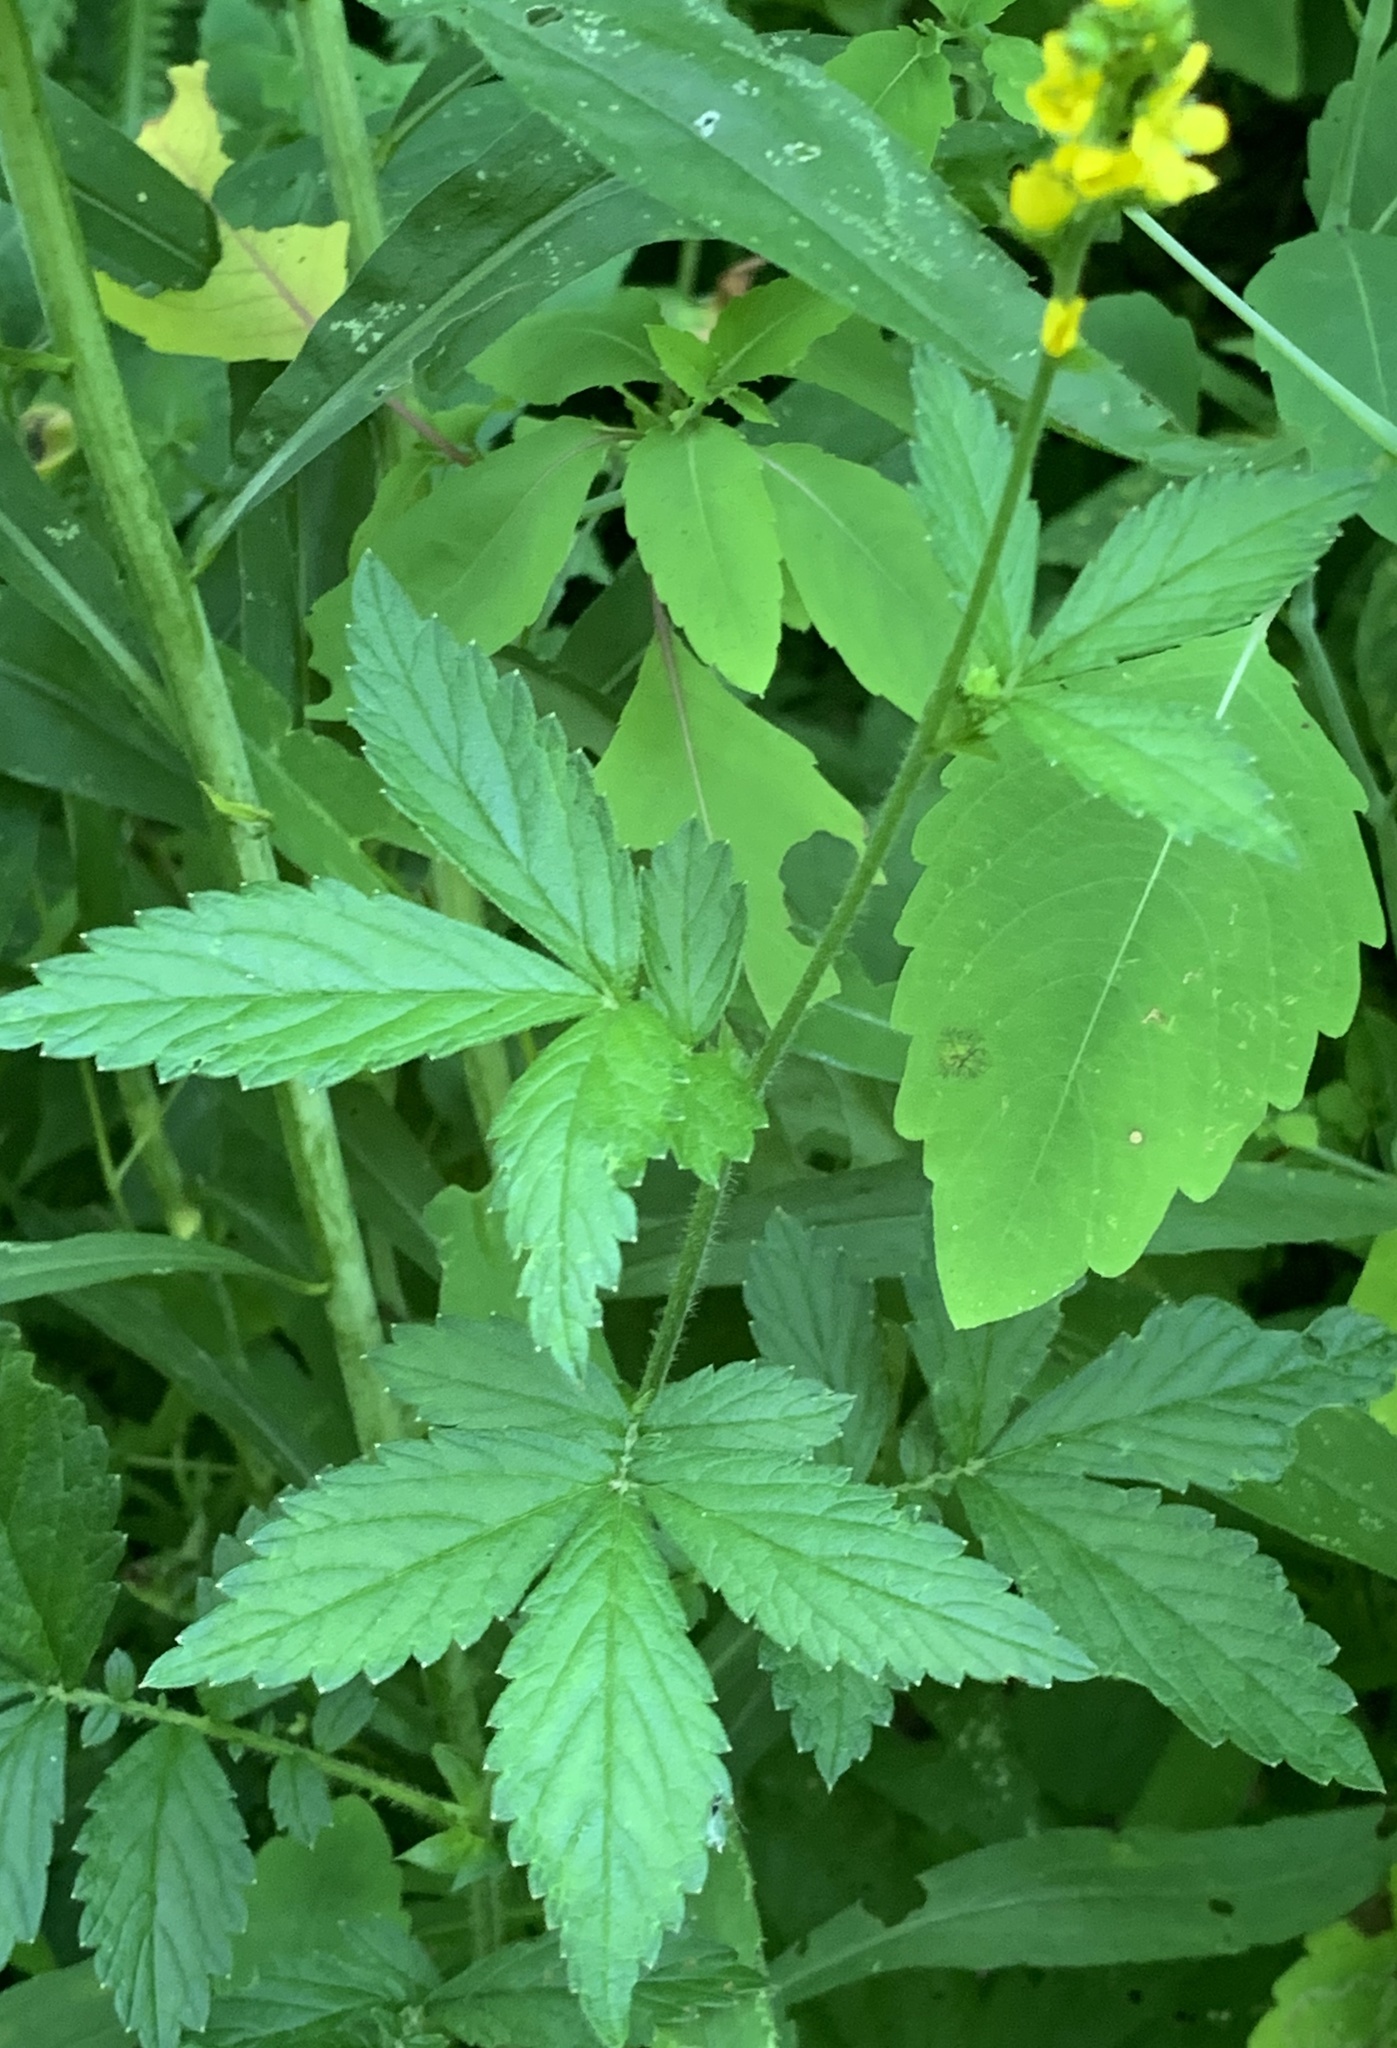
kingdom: Plantae
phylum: Tracheophyta
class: Magnoliopsida
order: Rosales
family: Rosaceae
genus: Agrimonia
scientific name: Agrimonia striata
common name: Britton's agrimony
